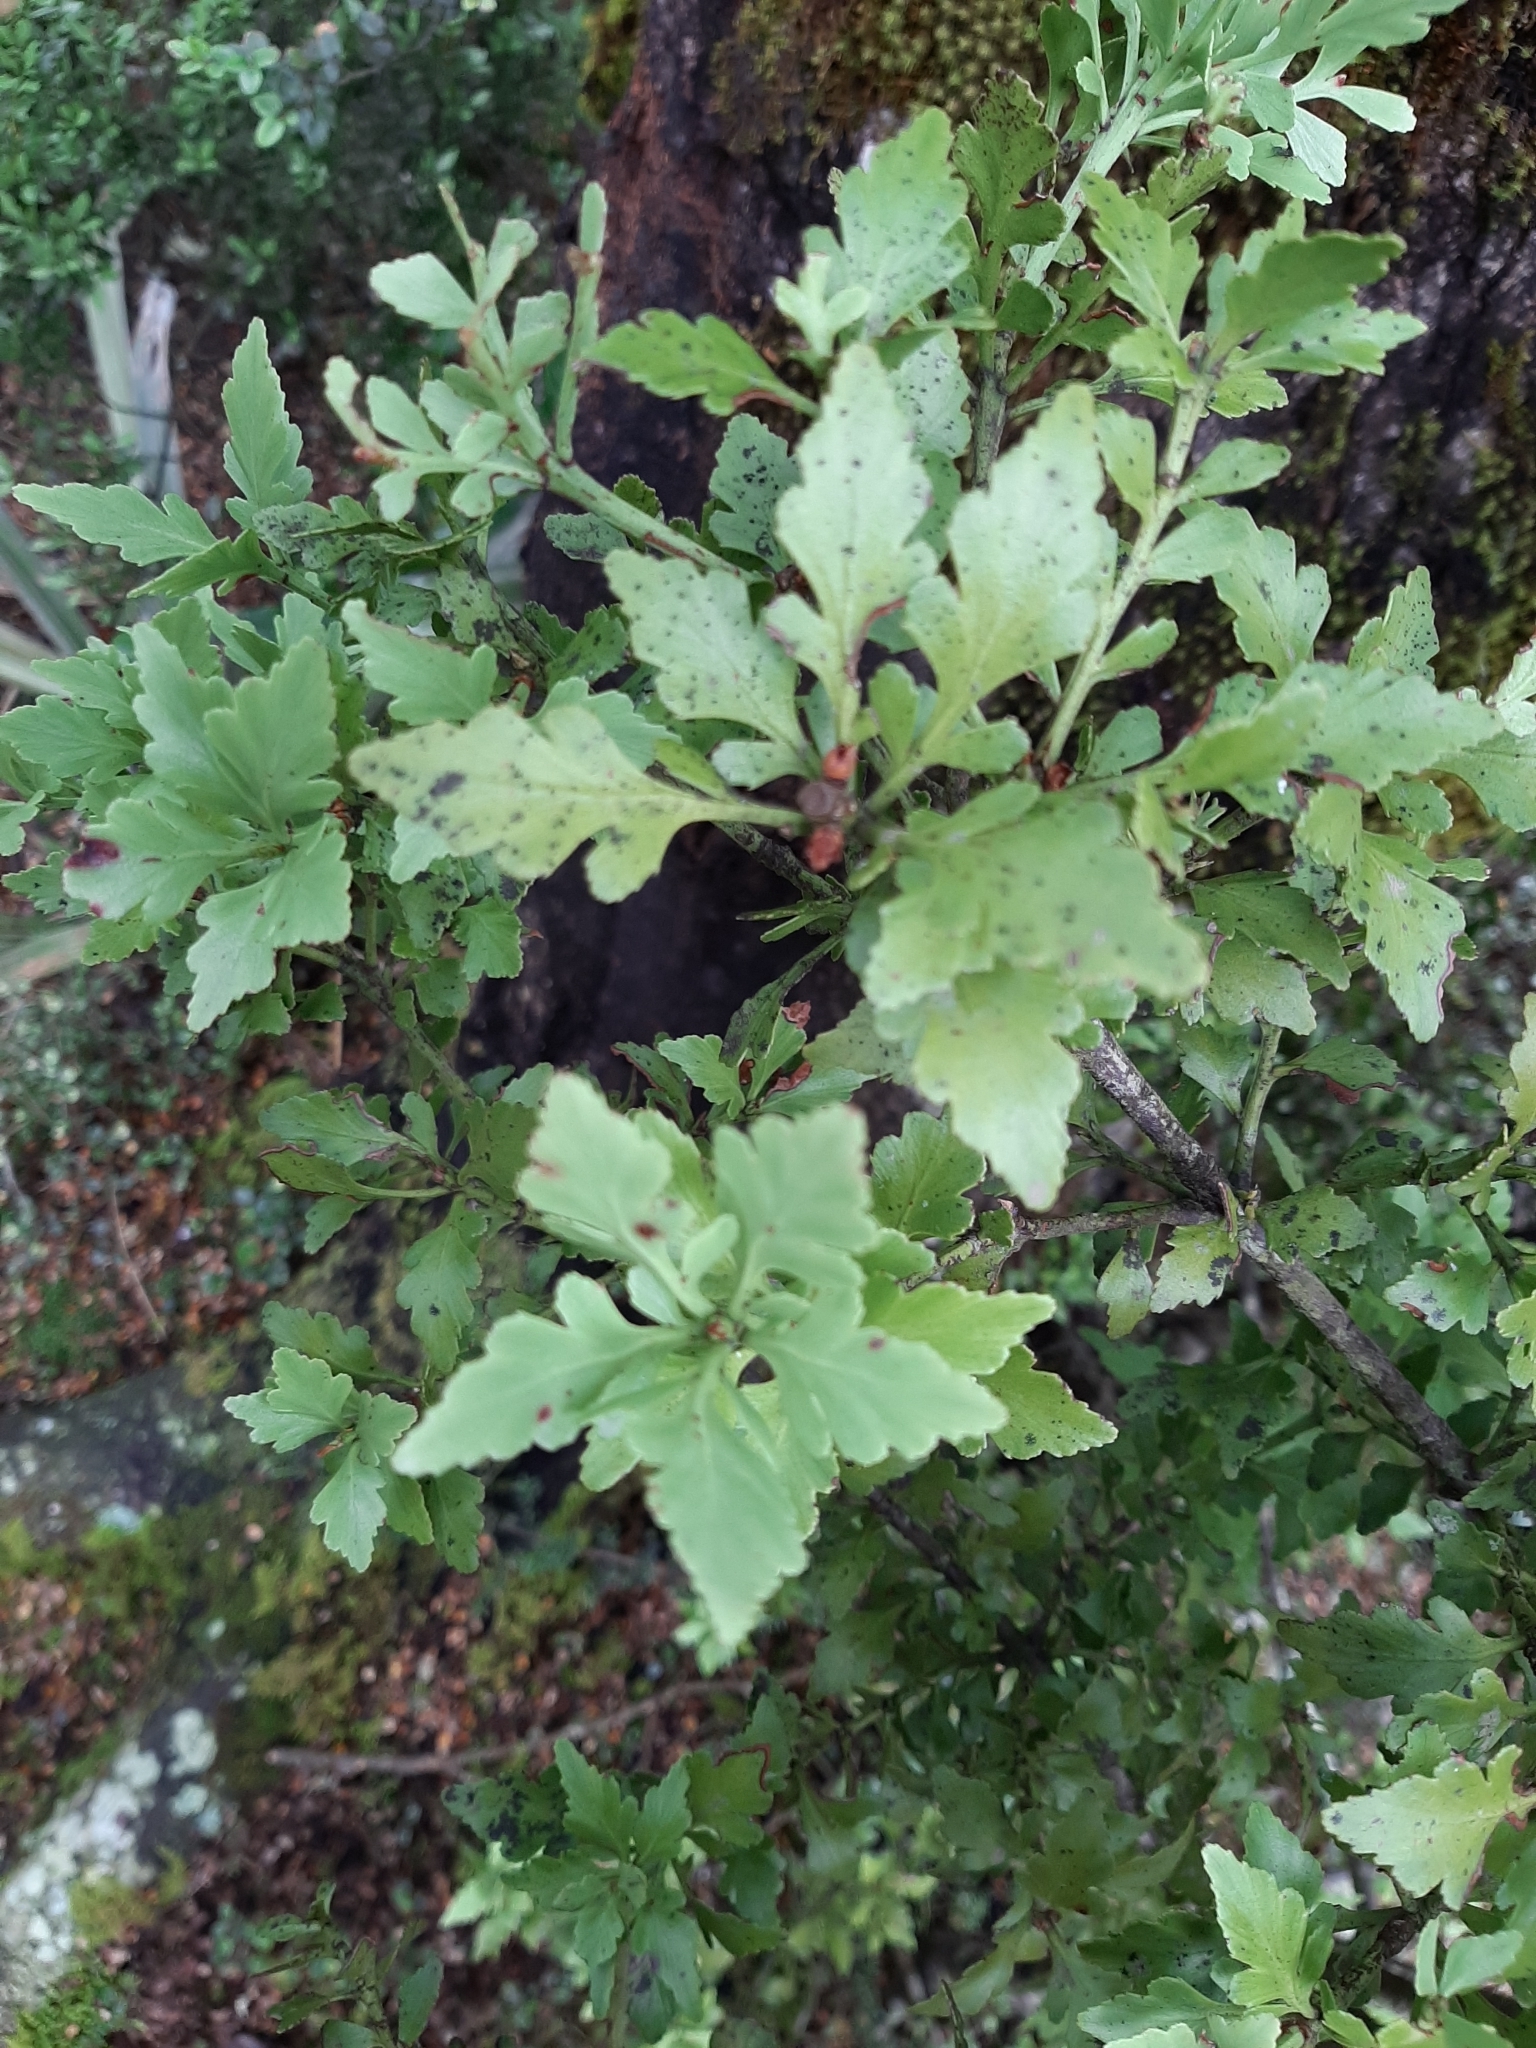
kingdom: Plantae
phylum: Tracheophyta
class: Pinopsida
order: Pinales
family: Phyllocladaceae
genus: Phyllocladus
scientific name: Phyllocladus trichomanoides
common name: Celery pine
